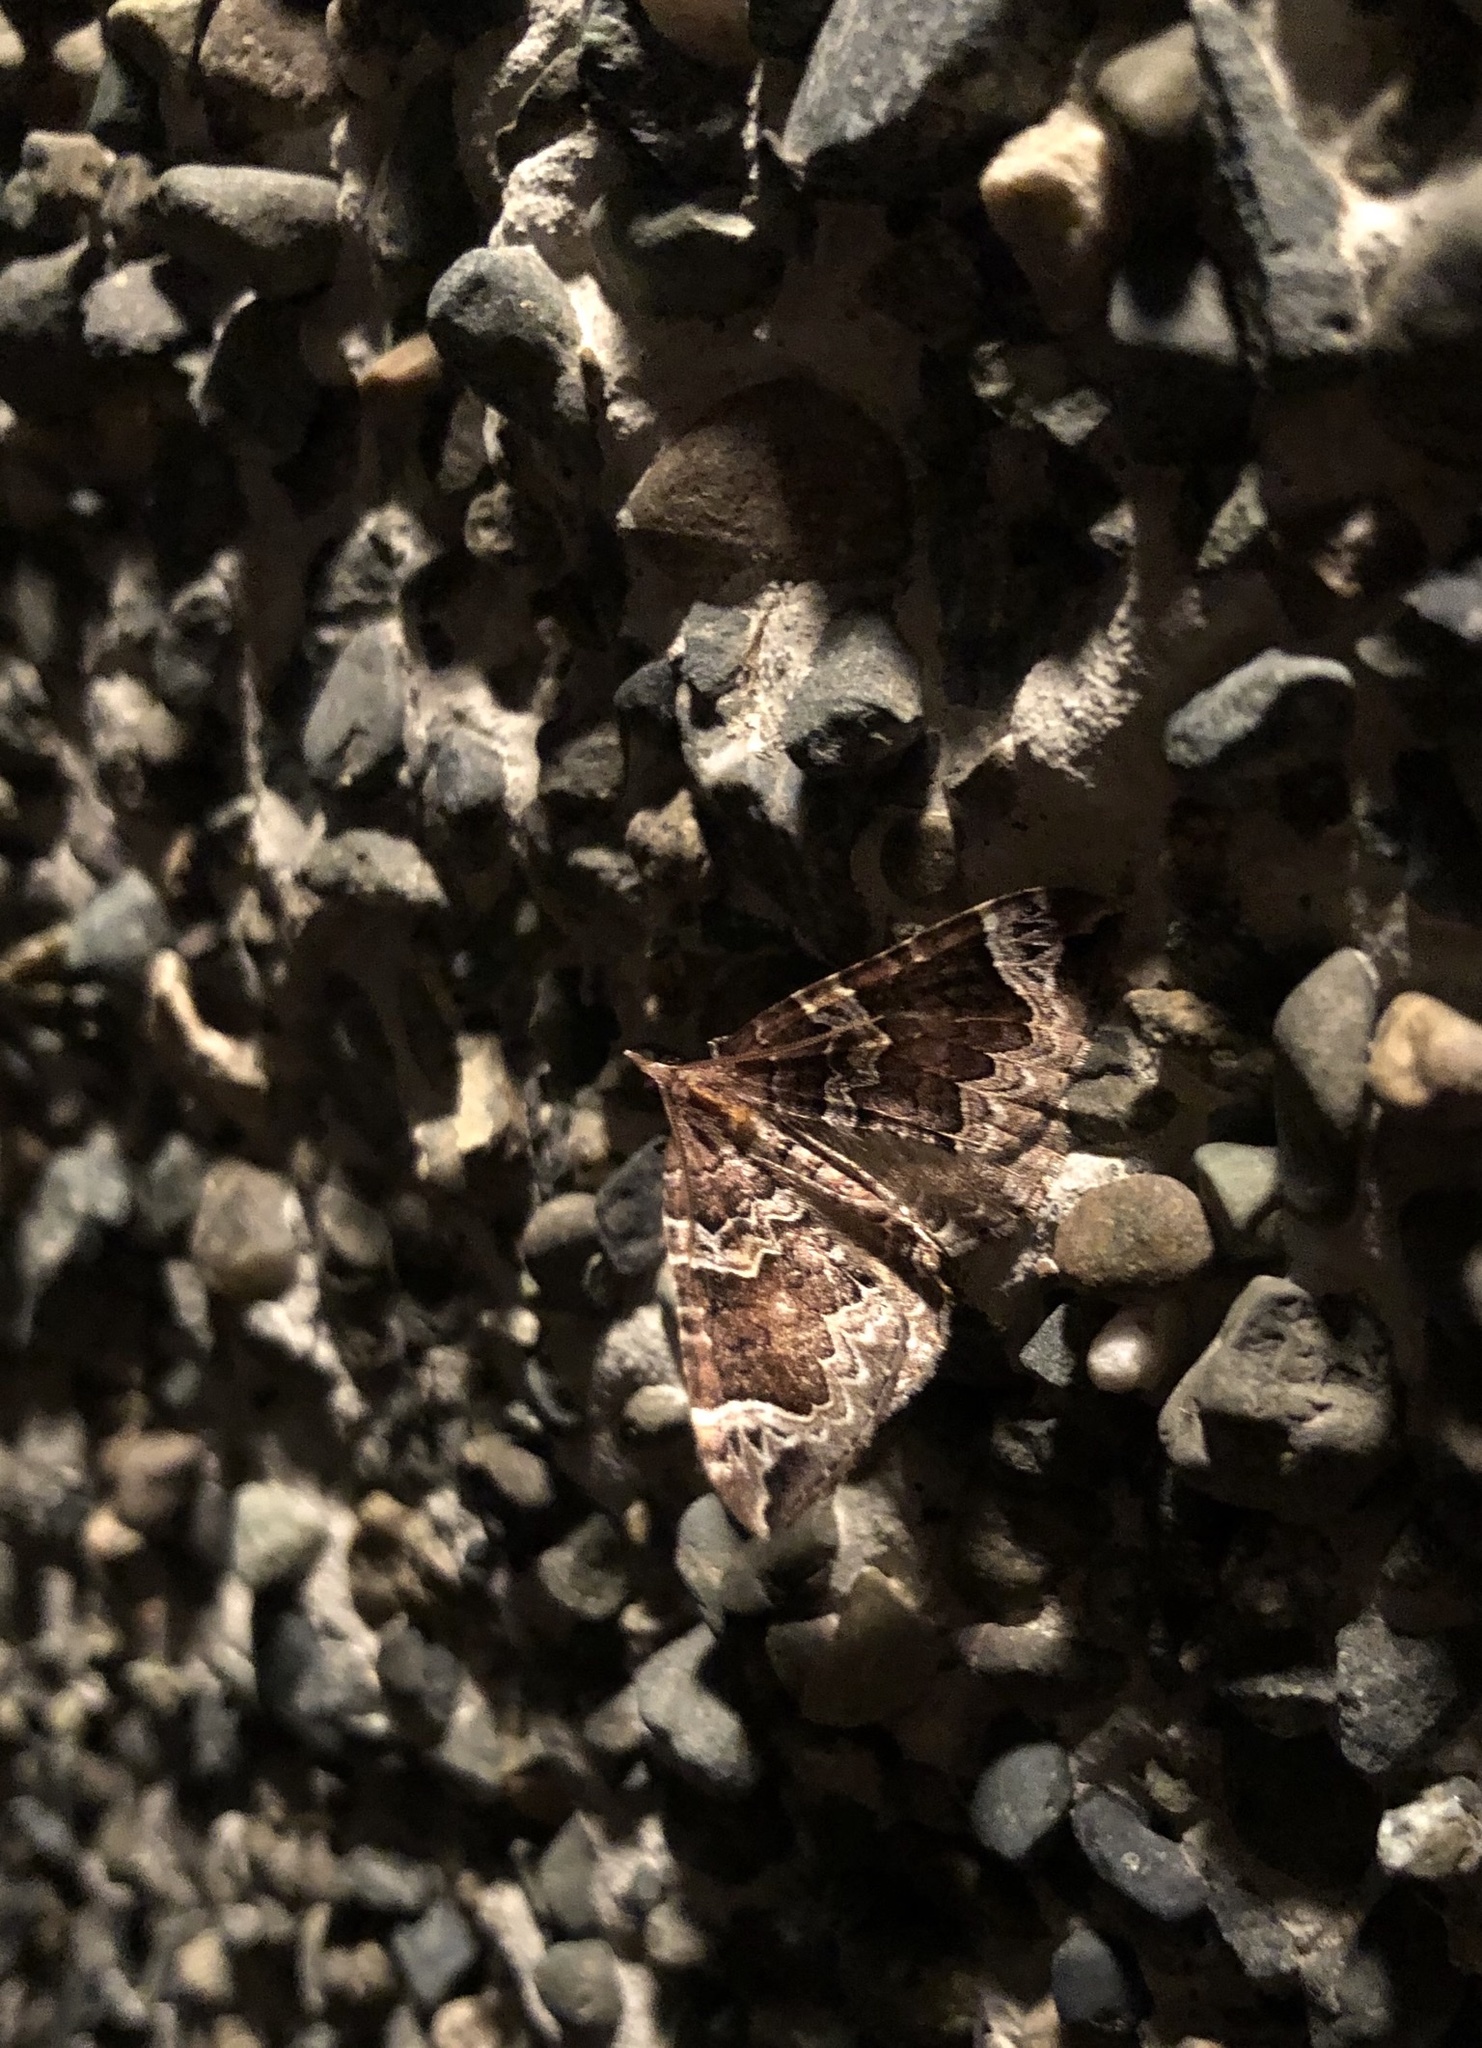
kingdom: Animalia
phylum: Arthropoda
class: Insecta
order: Lepidoptera
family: Geometridae
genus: Eulithis
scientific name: Eulithis xylina
